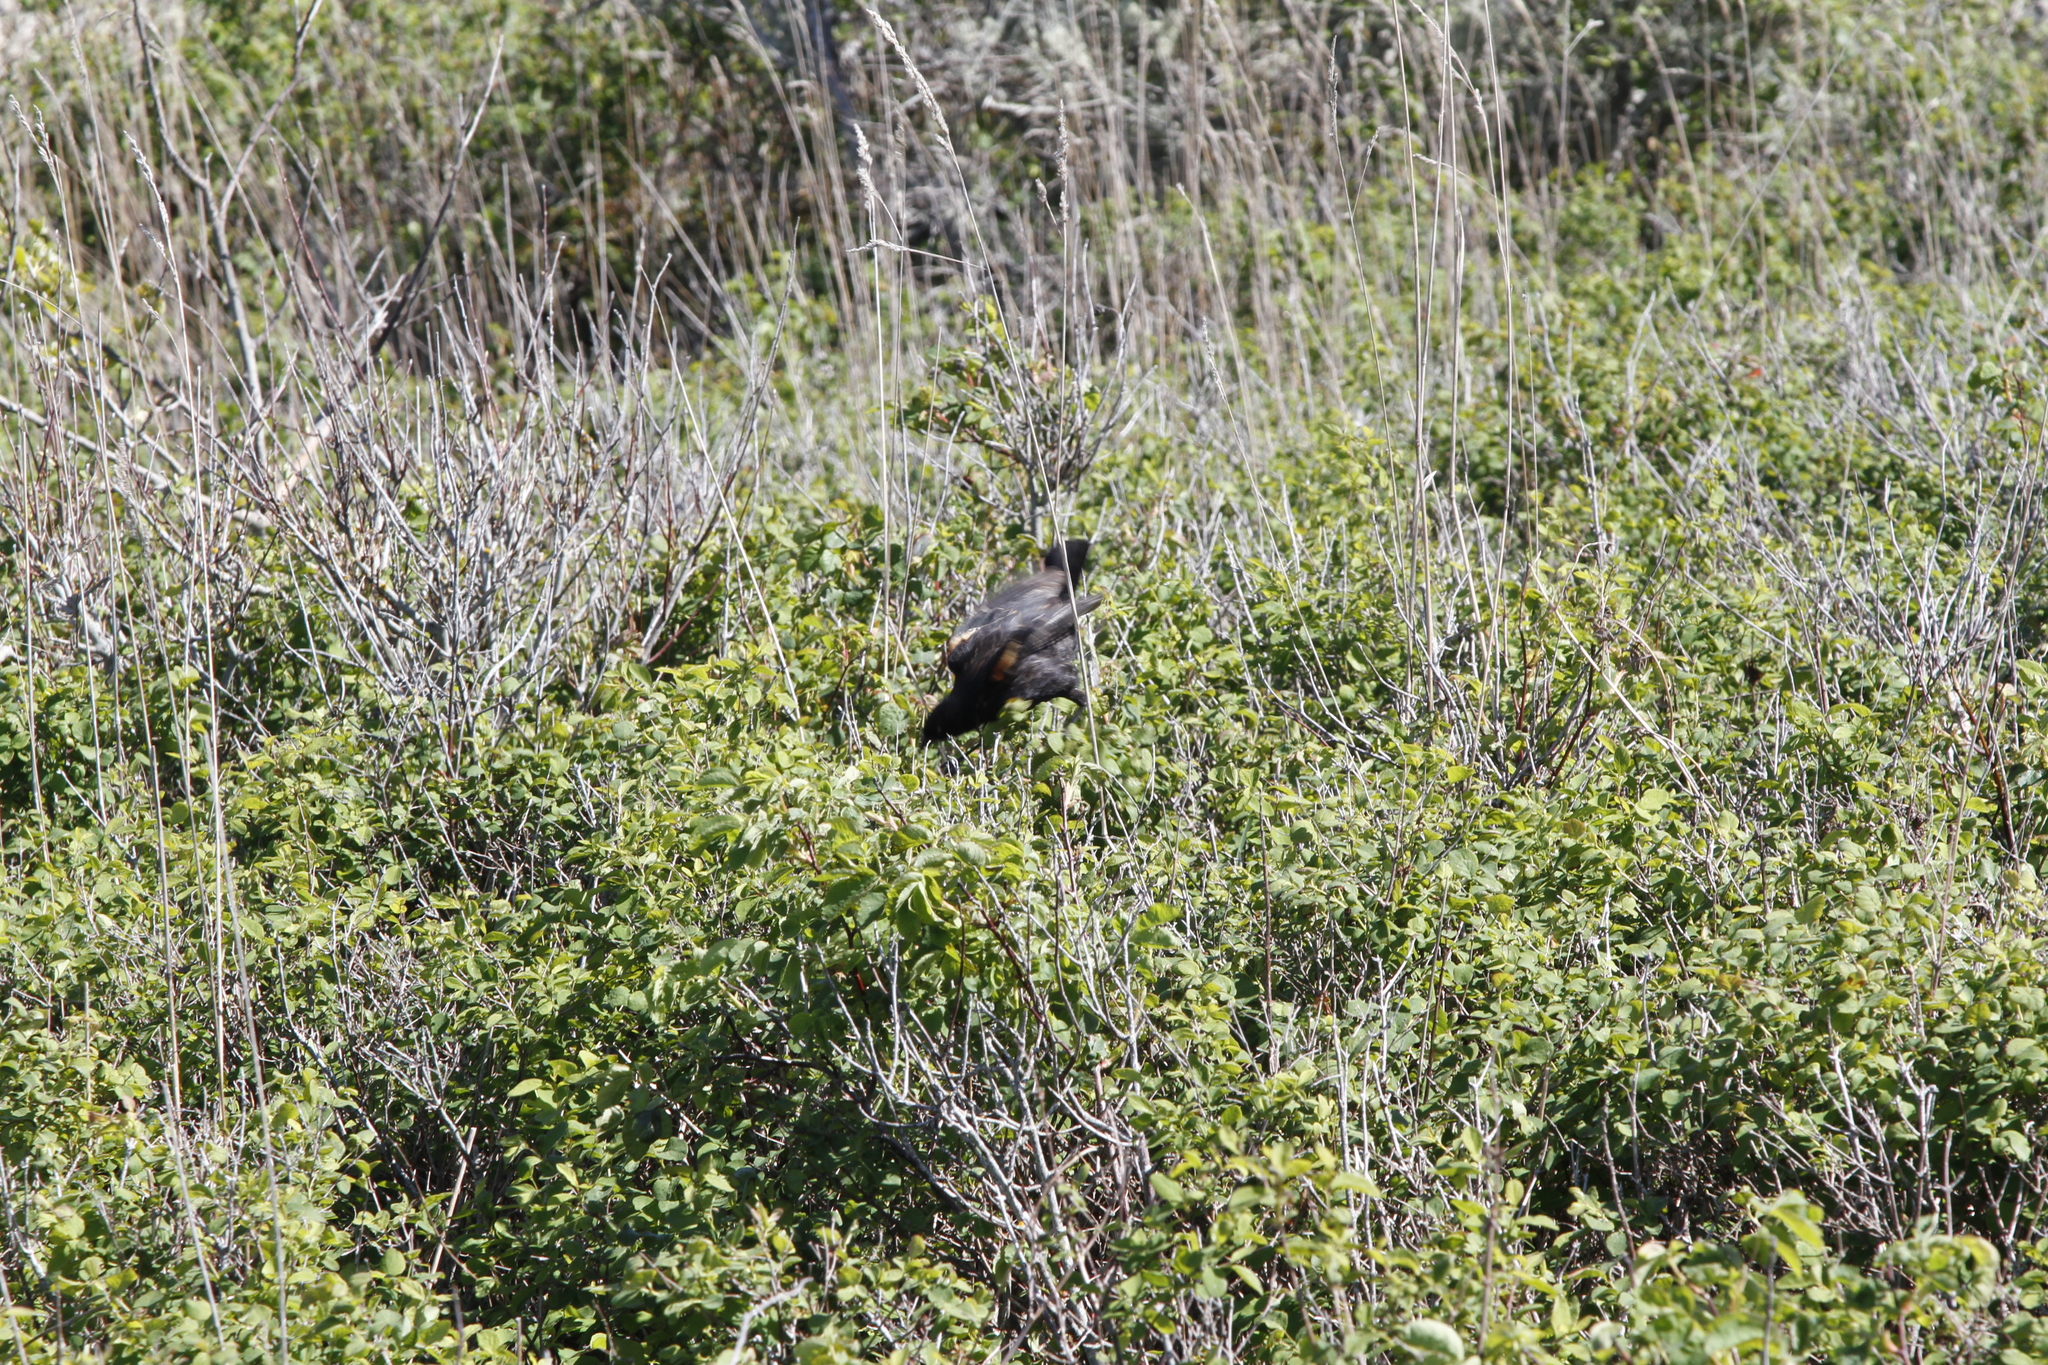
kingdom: Animalia
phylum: Chordata
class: Aves
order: Passeriformes
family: Icteridae
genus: Agelaius
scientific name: Agelaius phoeniceus
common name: Red-winged blackbird
